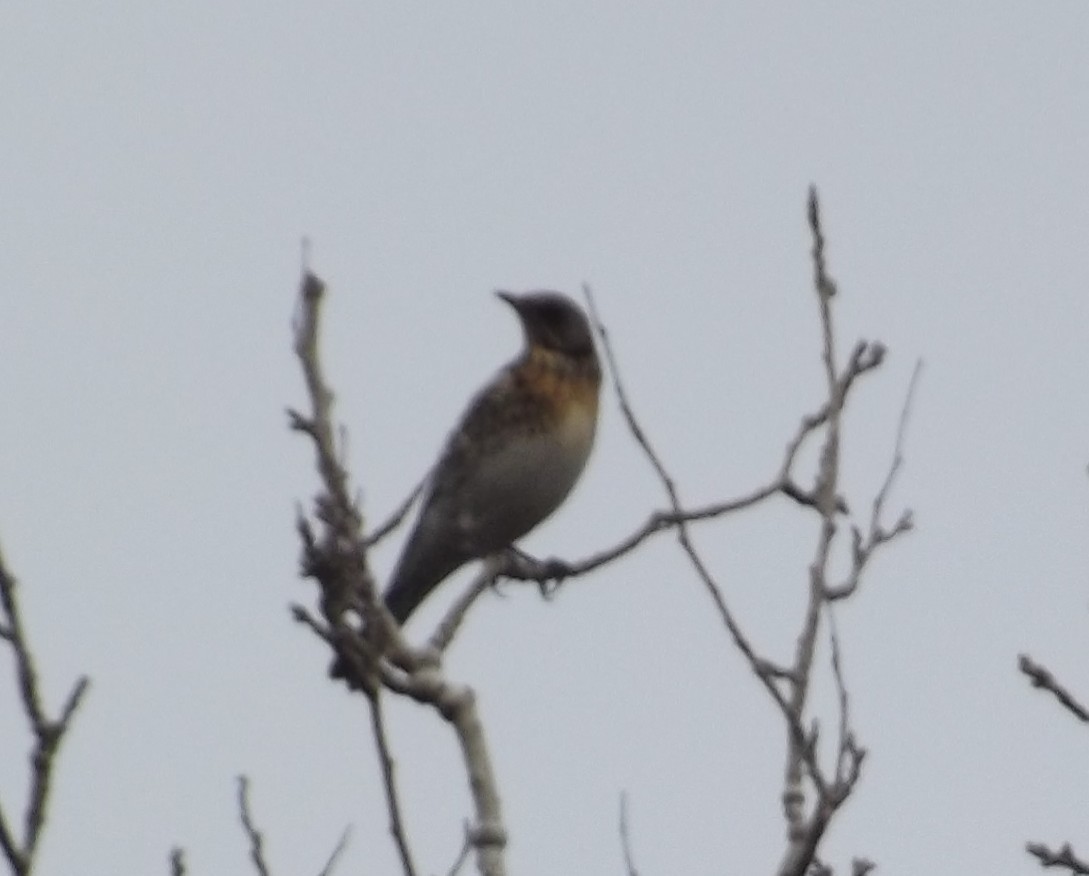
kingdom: Animalia
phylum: Chordata
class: Aves
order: Passeriformes
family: Turdidae
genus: Turdus
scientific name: Turdus pilaris
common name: Fieldfare
